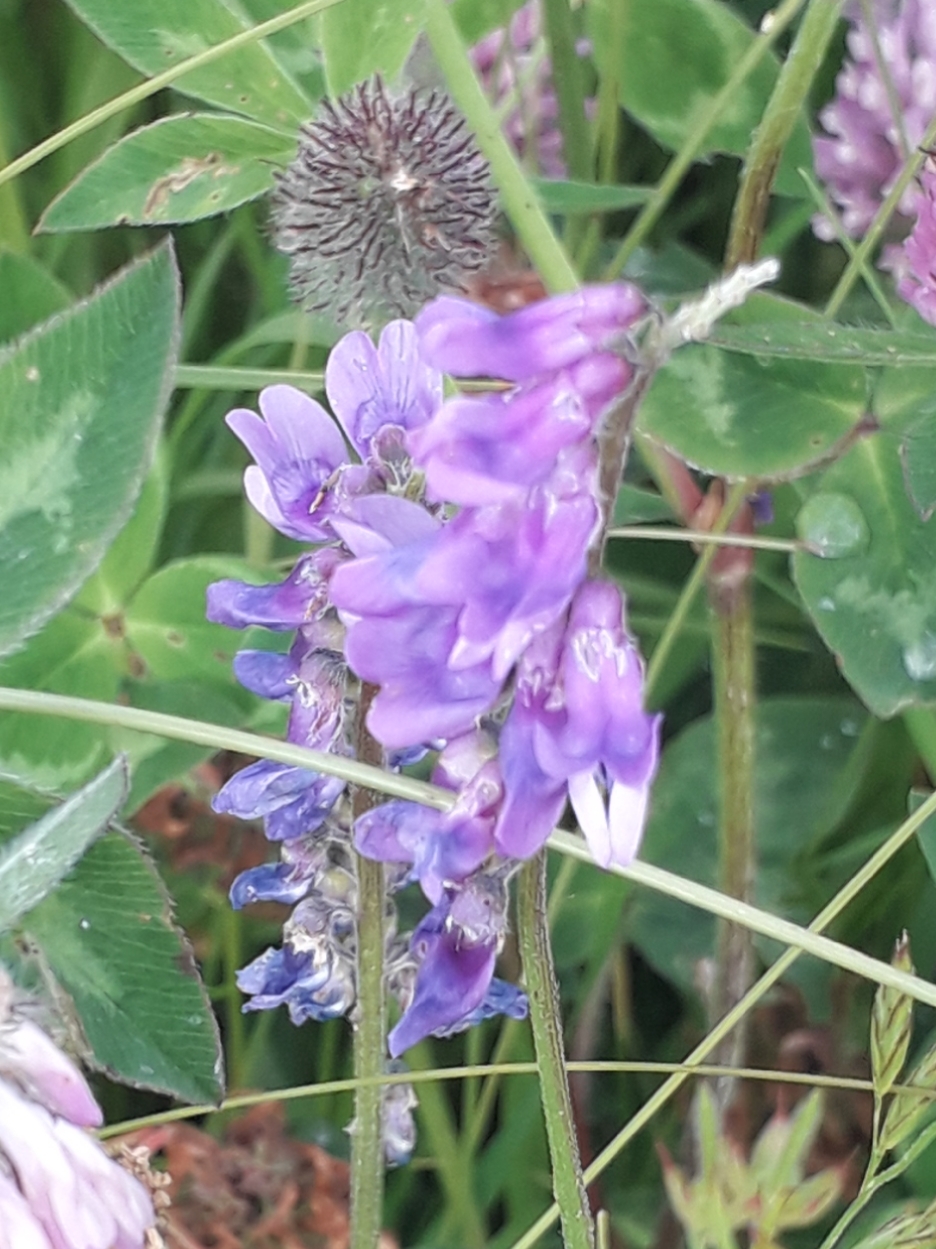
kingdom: Plantae
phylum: Tracheophyta
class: Magnoliopsida
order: Fabales
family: Fabaceae
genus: Vicia
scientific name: Vicia cracca
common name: Bird vetch
